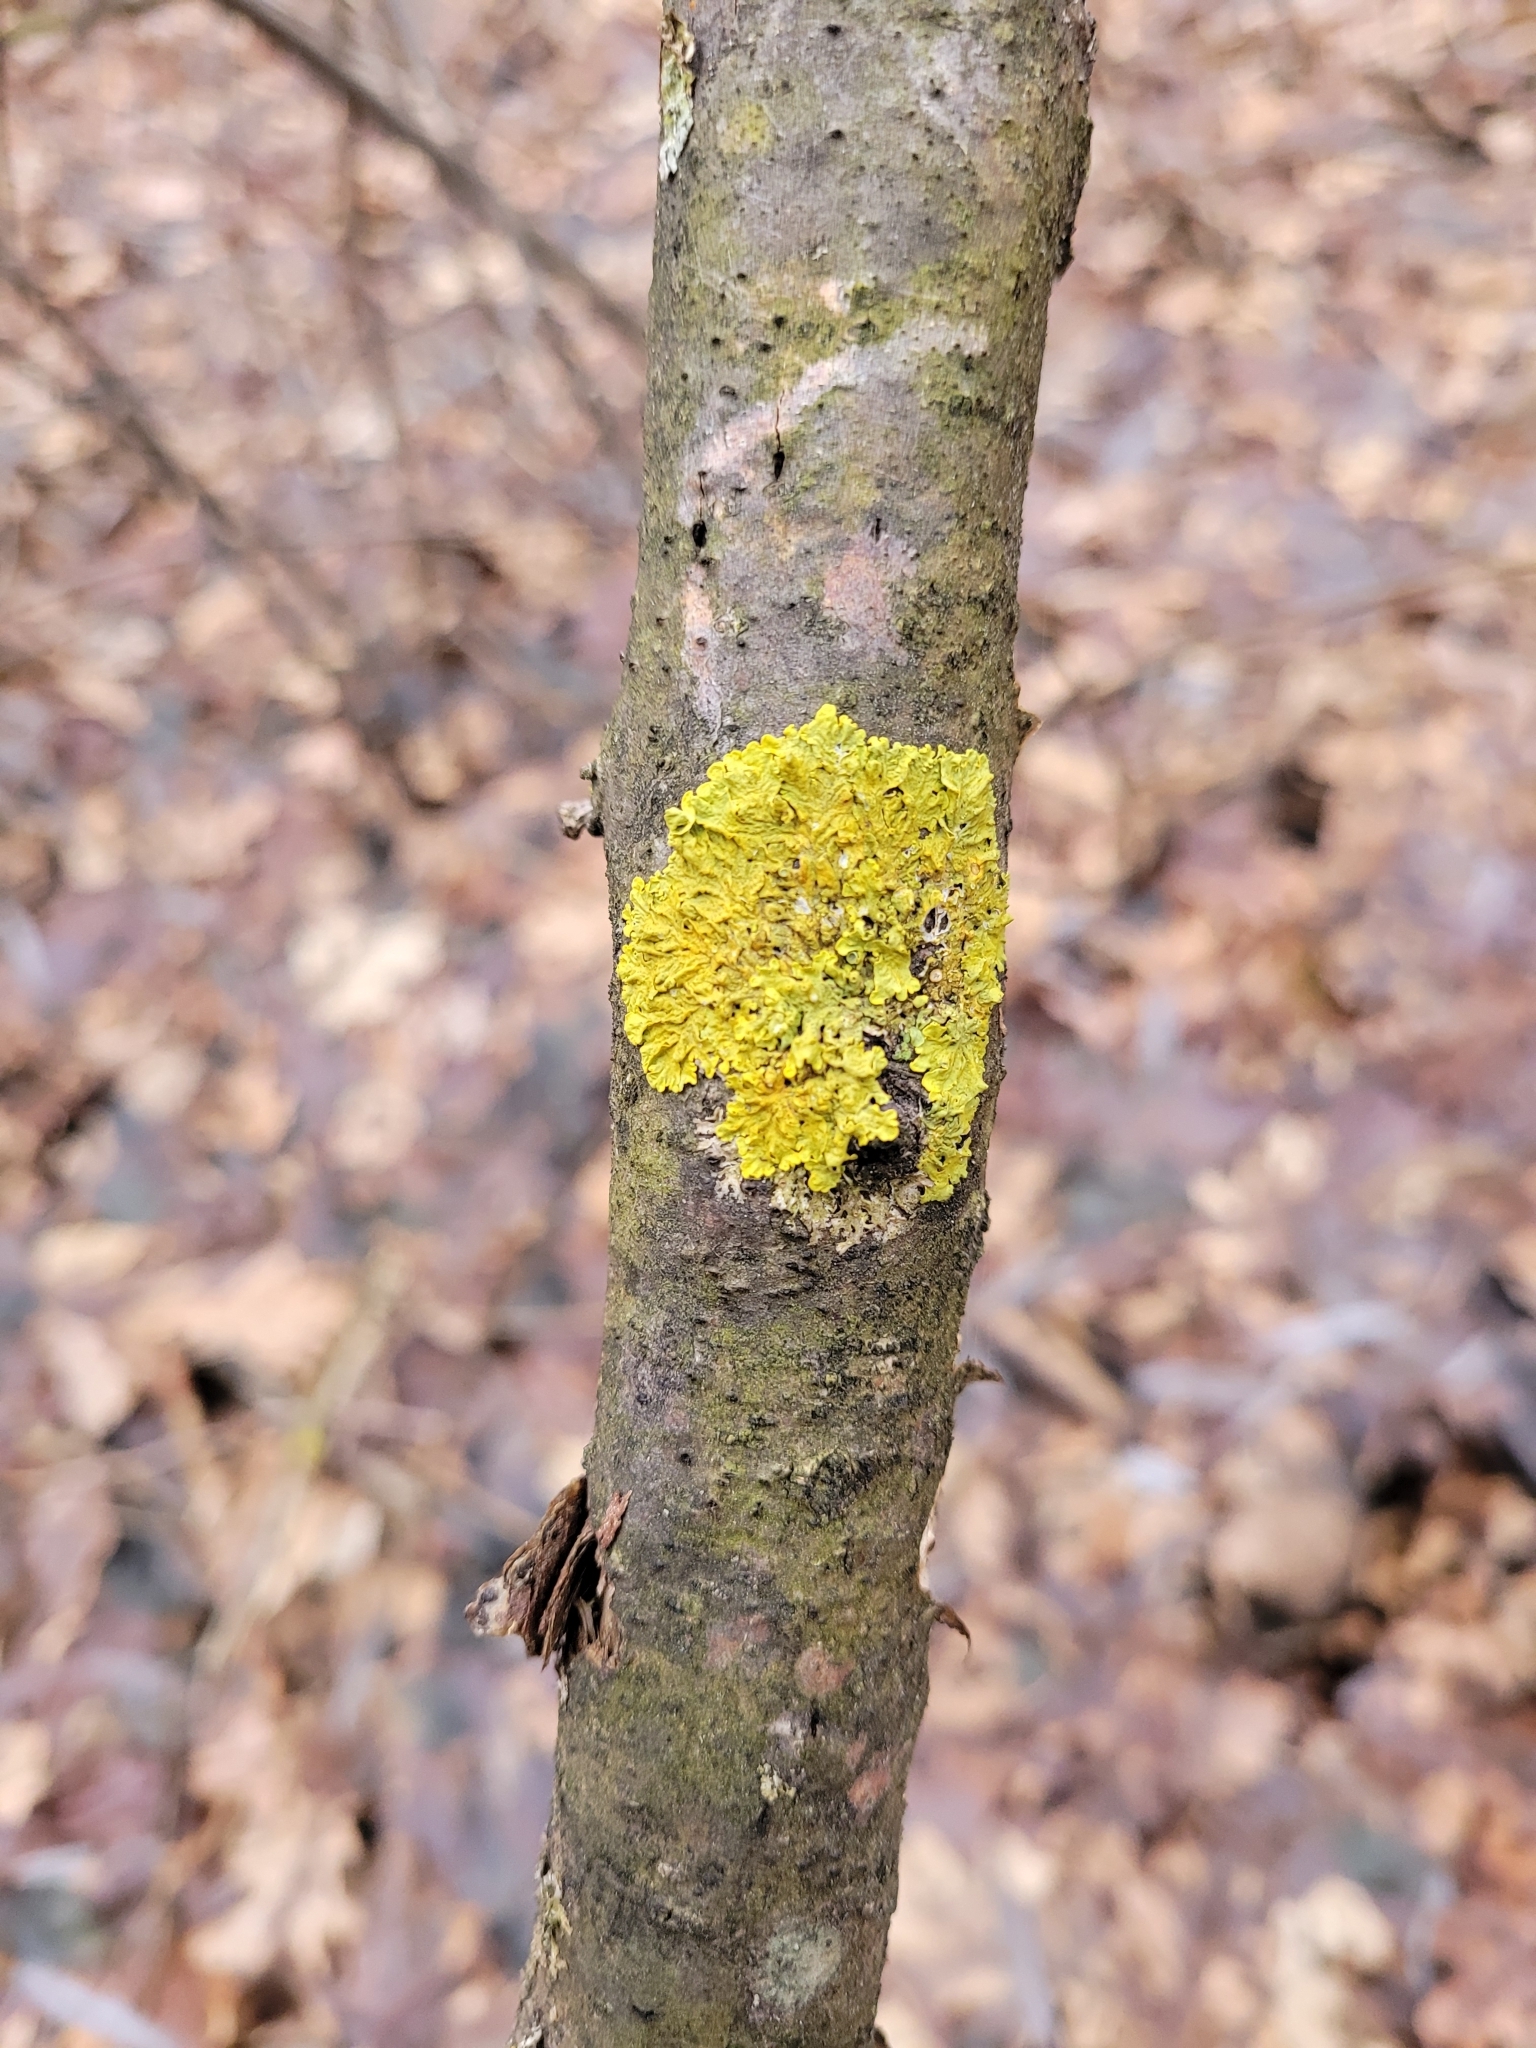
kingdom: Fungi
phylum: Ascomycota
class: Lecanoromycetes
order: Teloschistales
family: Teloschistaceae
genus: Xanthoria
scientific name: Xanthoria parietina
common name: Common orange lichen
